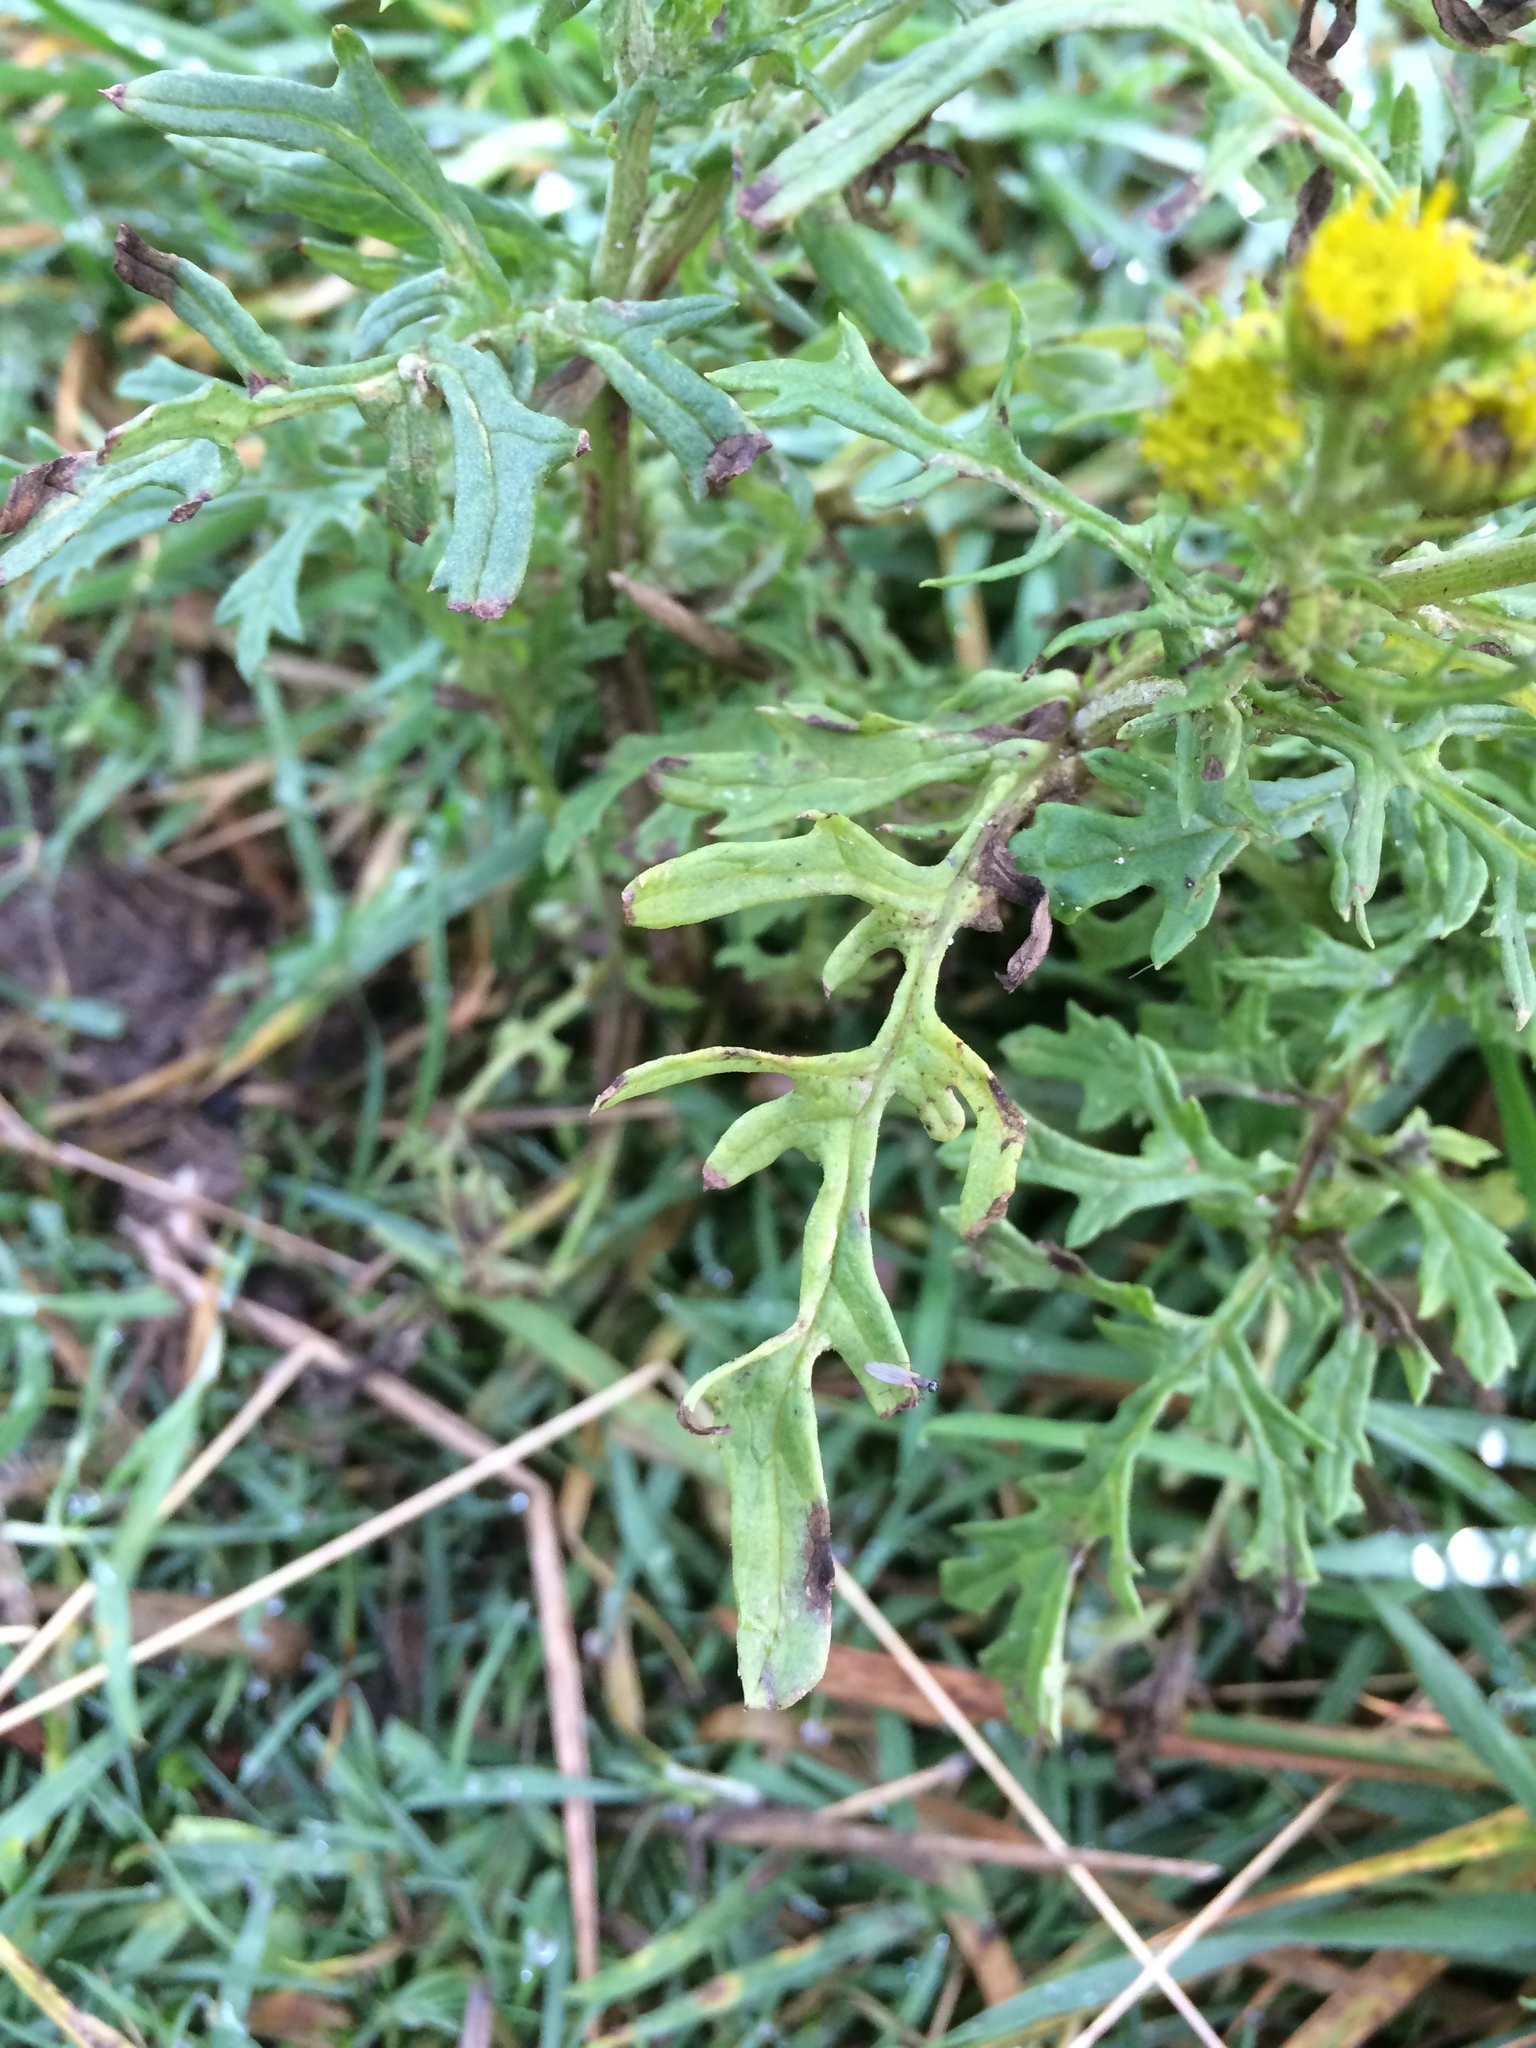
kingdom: Plantae
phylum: Tracheophyta
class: Magnoliopsida
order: Asterales
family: Asteraceae
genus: Jacobaea
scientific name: Jacobaea vulgaris
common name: Stinking willie
